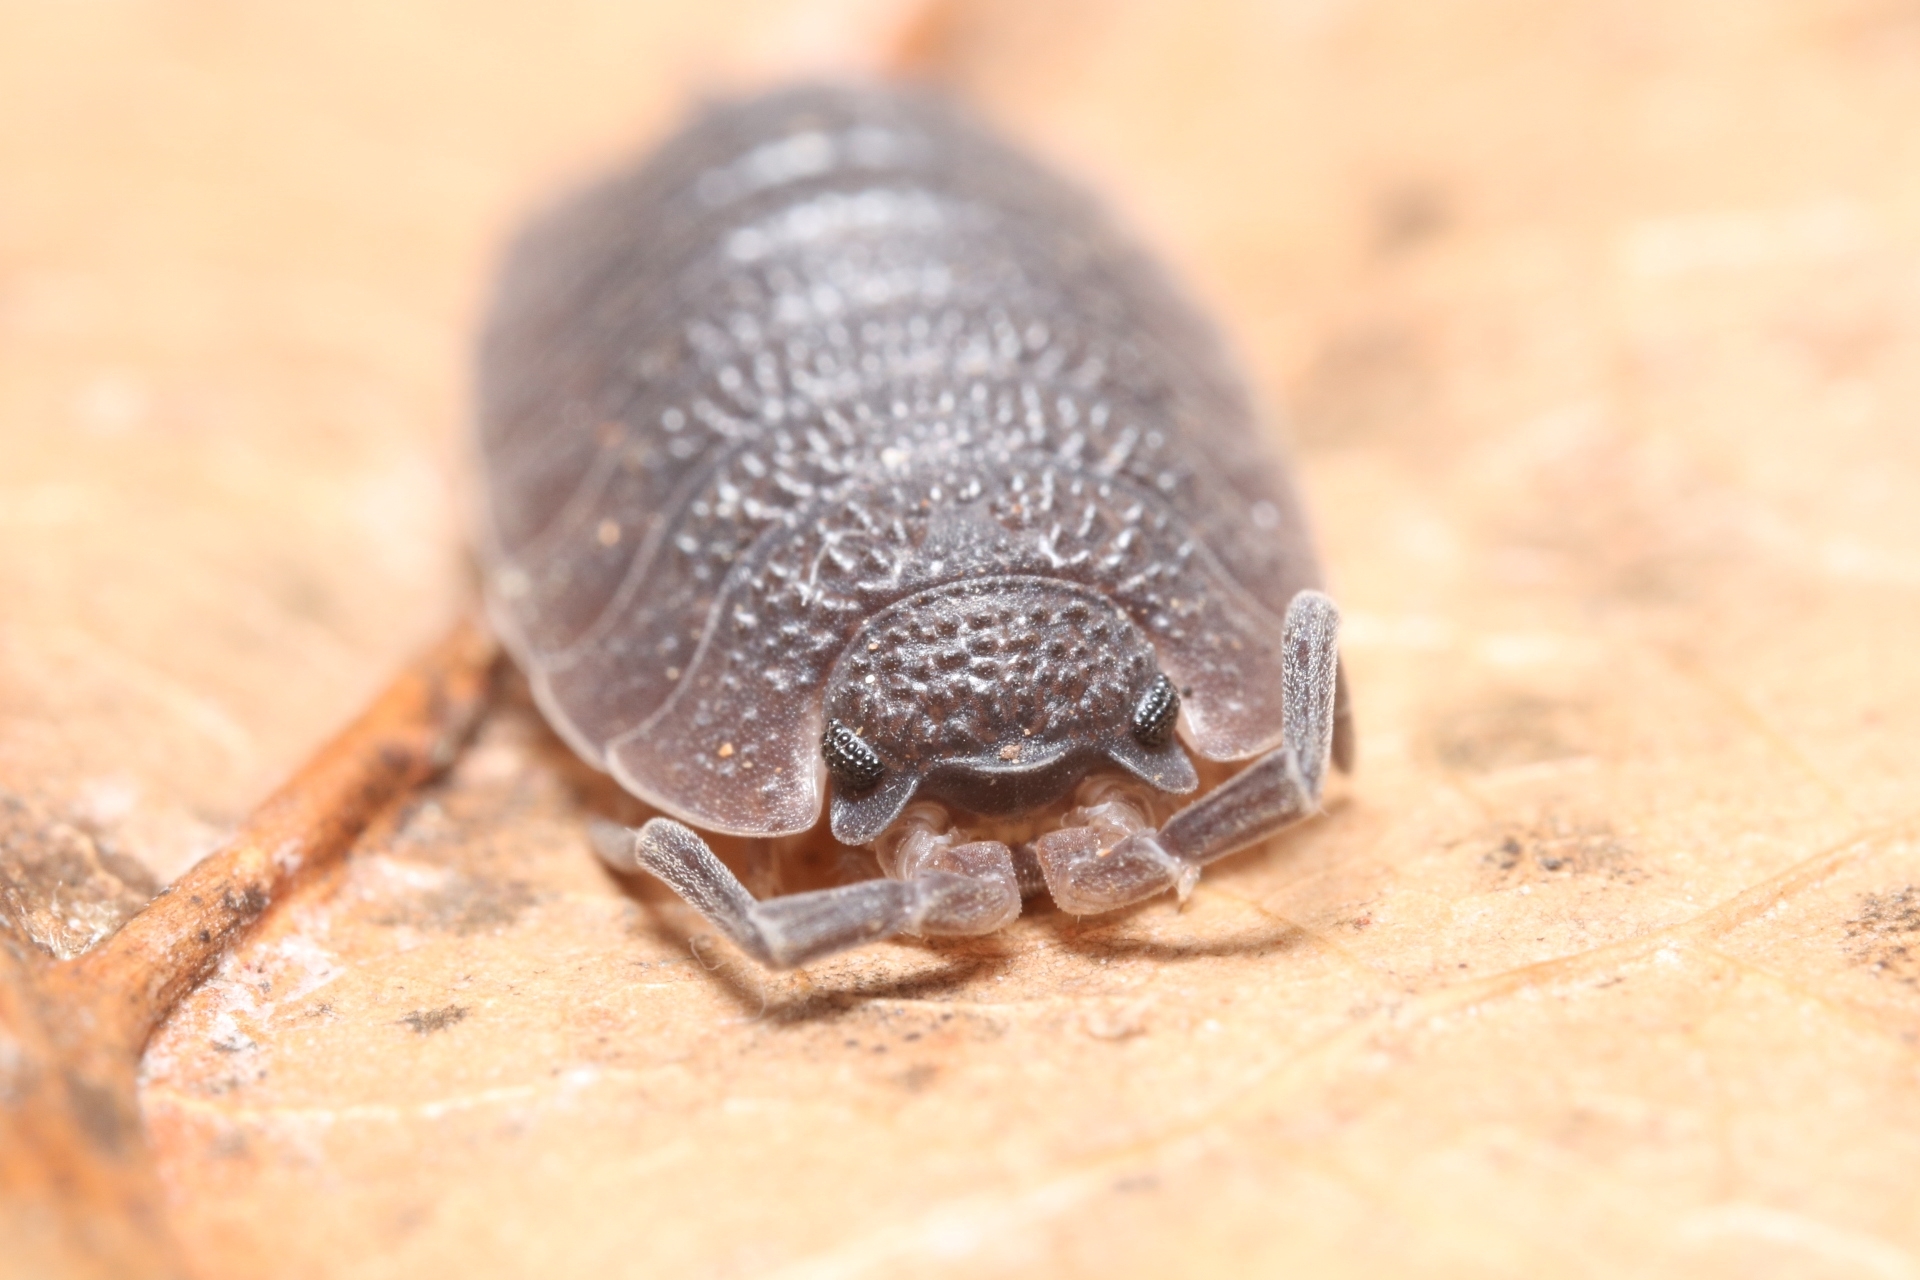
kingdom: Animalia
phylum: Arthropoda
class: Malacostraca
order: Isopoda
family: Porcellionidae
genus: Porcellio
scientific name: Porcellio scaber
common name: Common rough woodlouse
